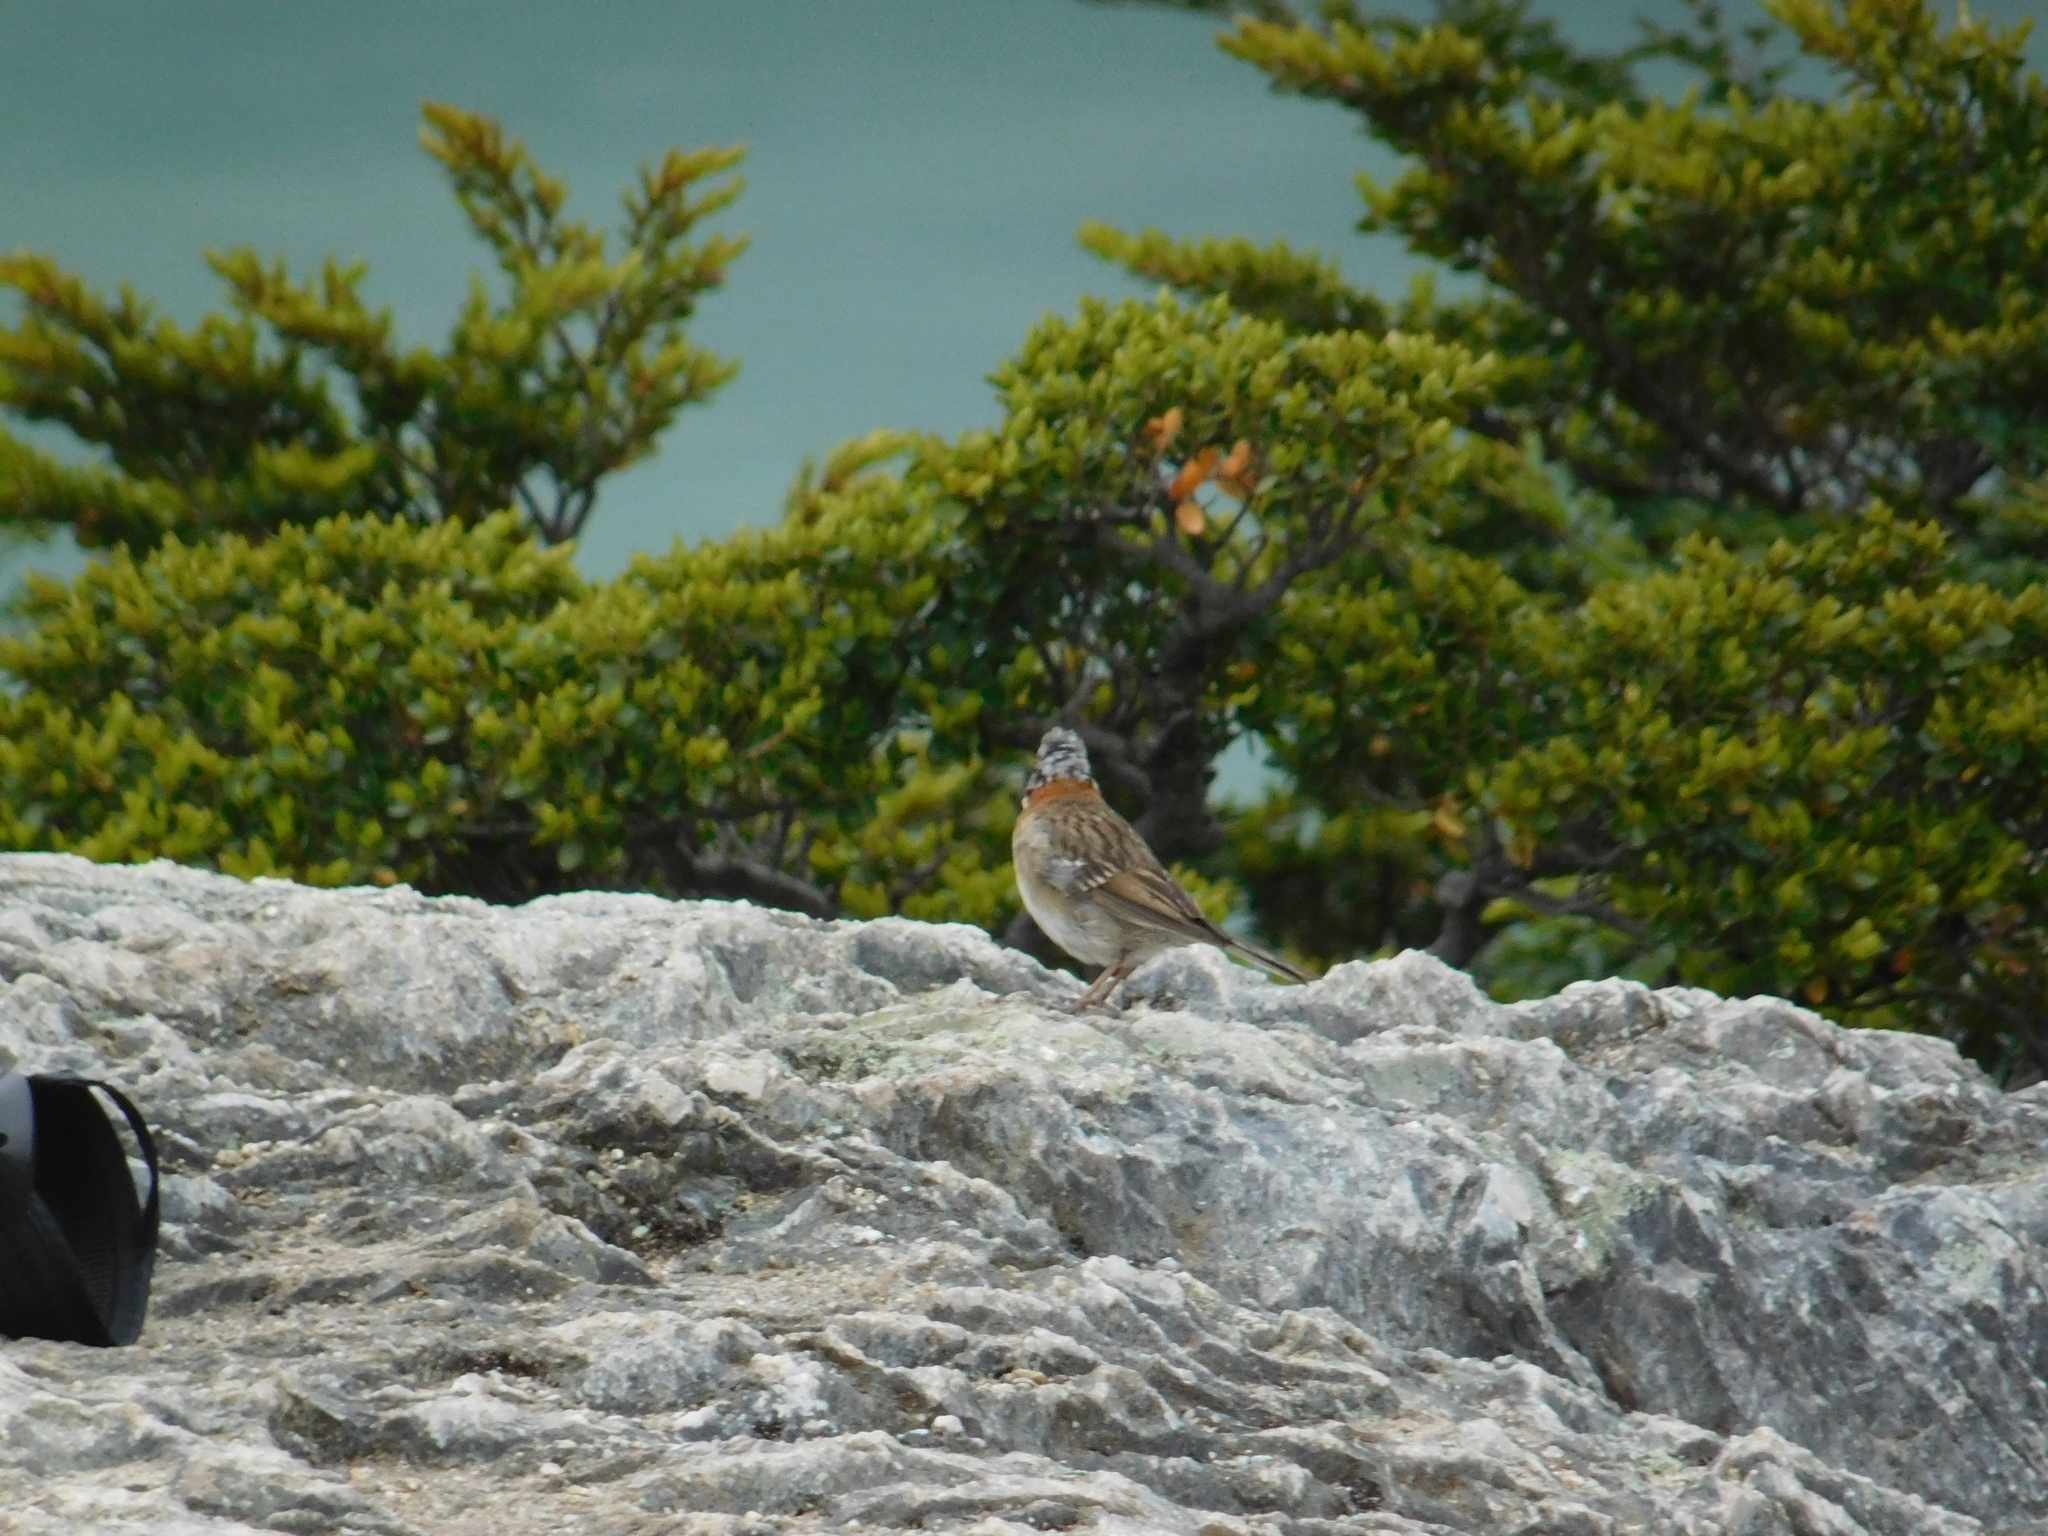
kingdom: Animalia
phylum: Chordata
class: Aves
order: Passeriformes
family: Passerellidae
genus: Zonotrichia
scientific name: Zonotrichia capensis
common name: Rufous-collared sparrow
